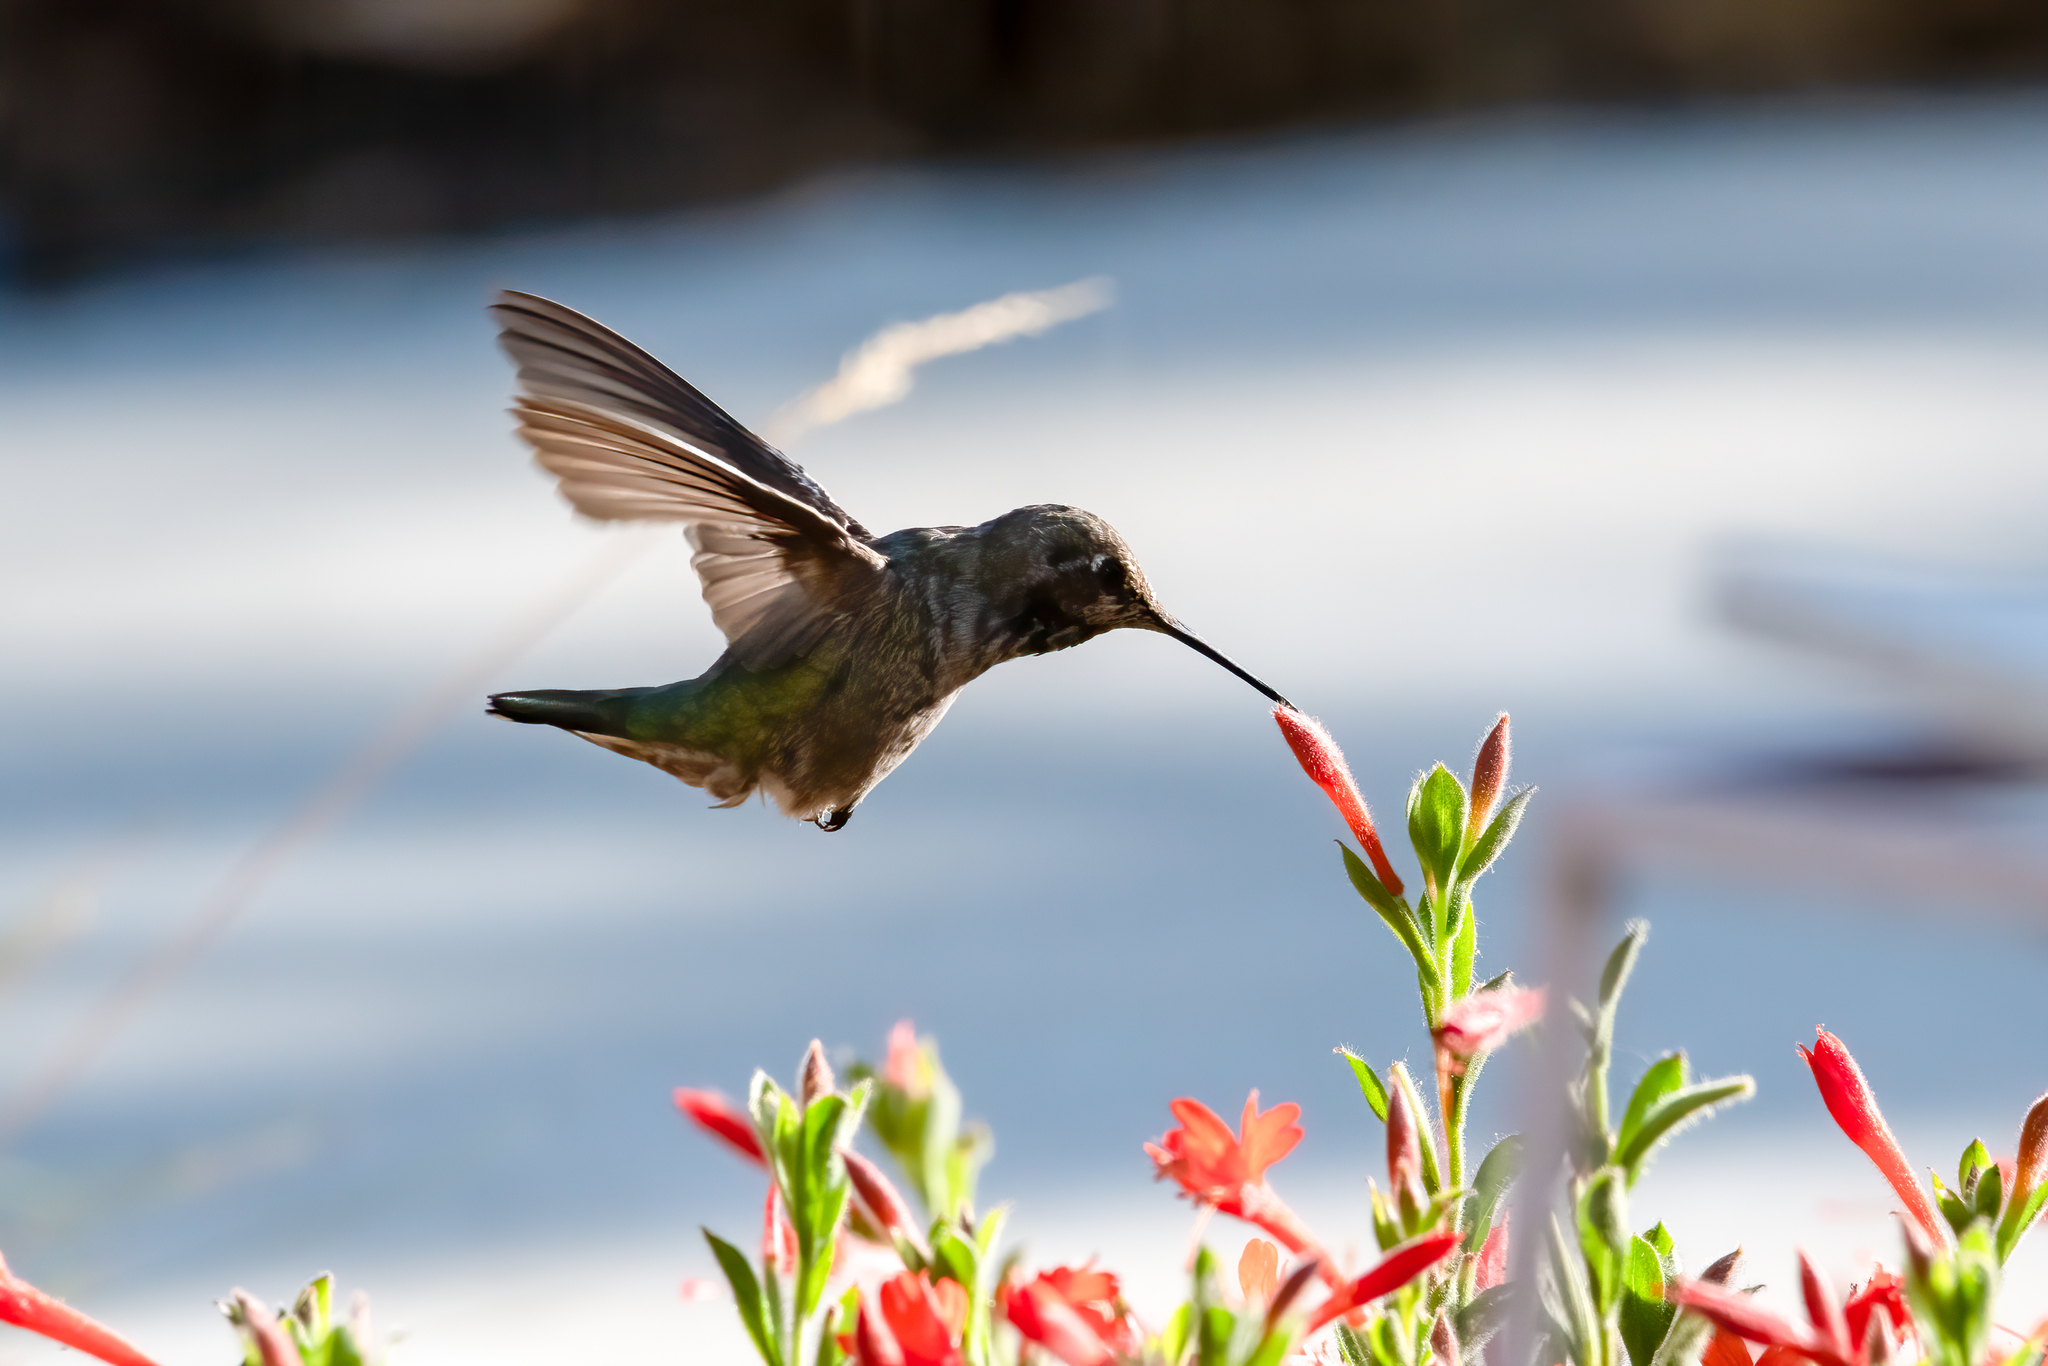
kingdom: Animalia
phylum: Chordata
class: Aves
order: Apodiformes
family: Trochilidae
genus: Calypte
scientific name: Calypte anna
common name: Anna's hummingbird
